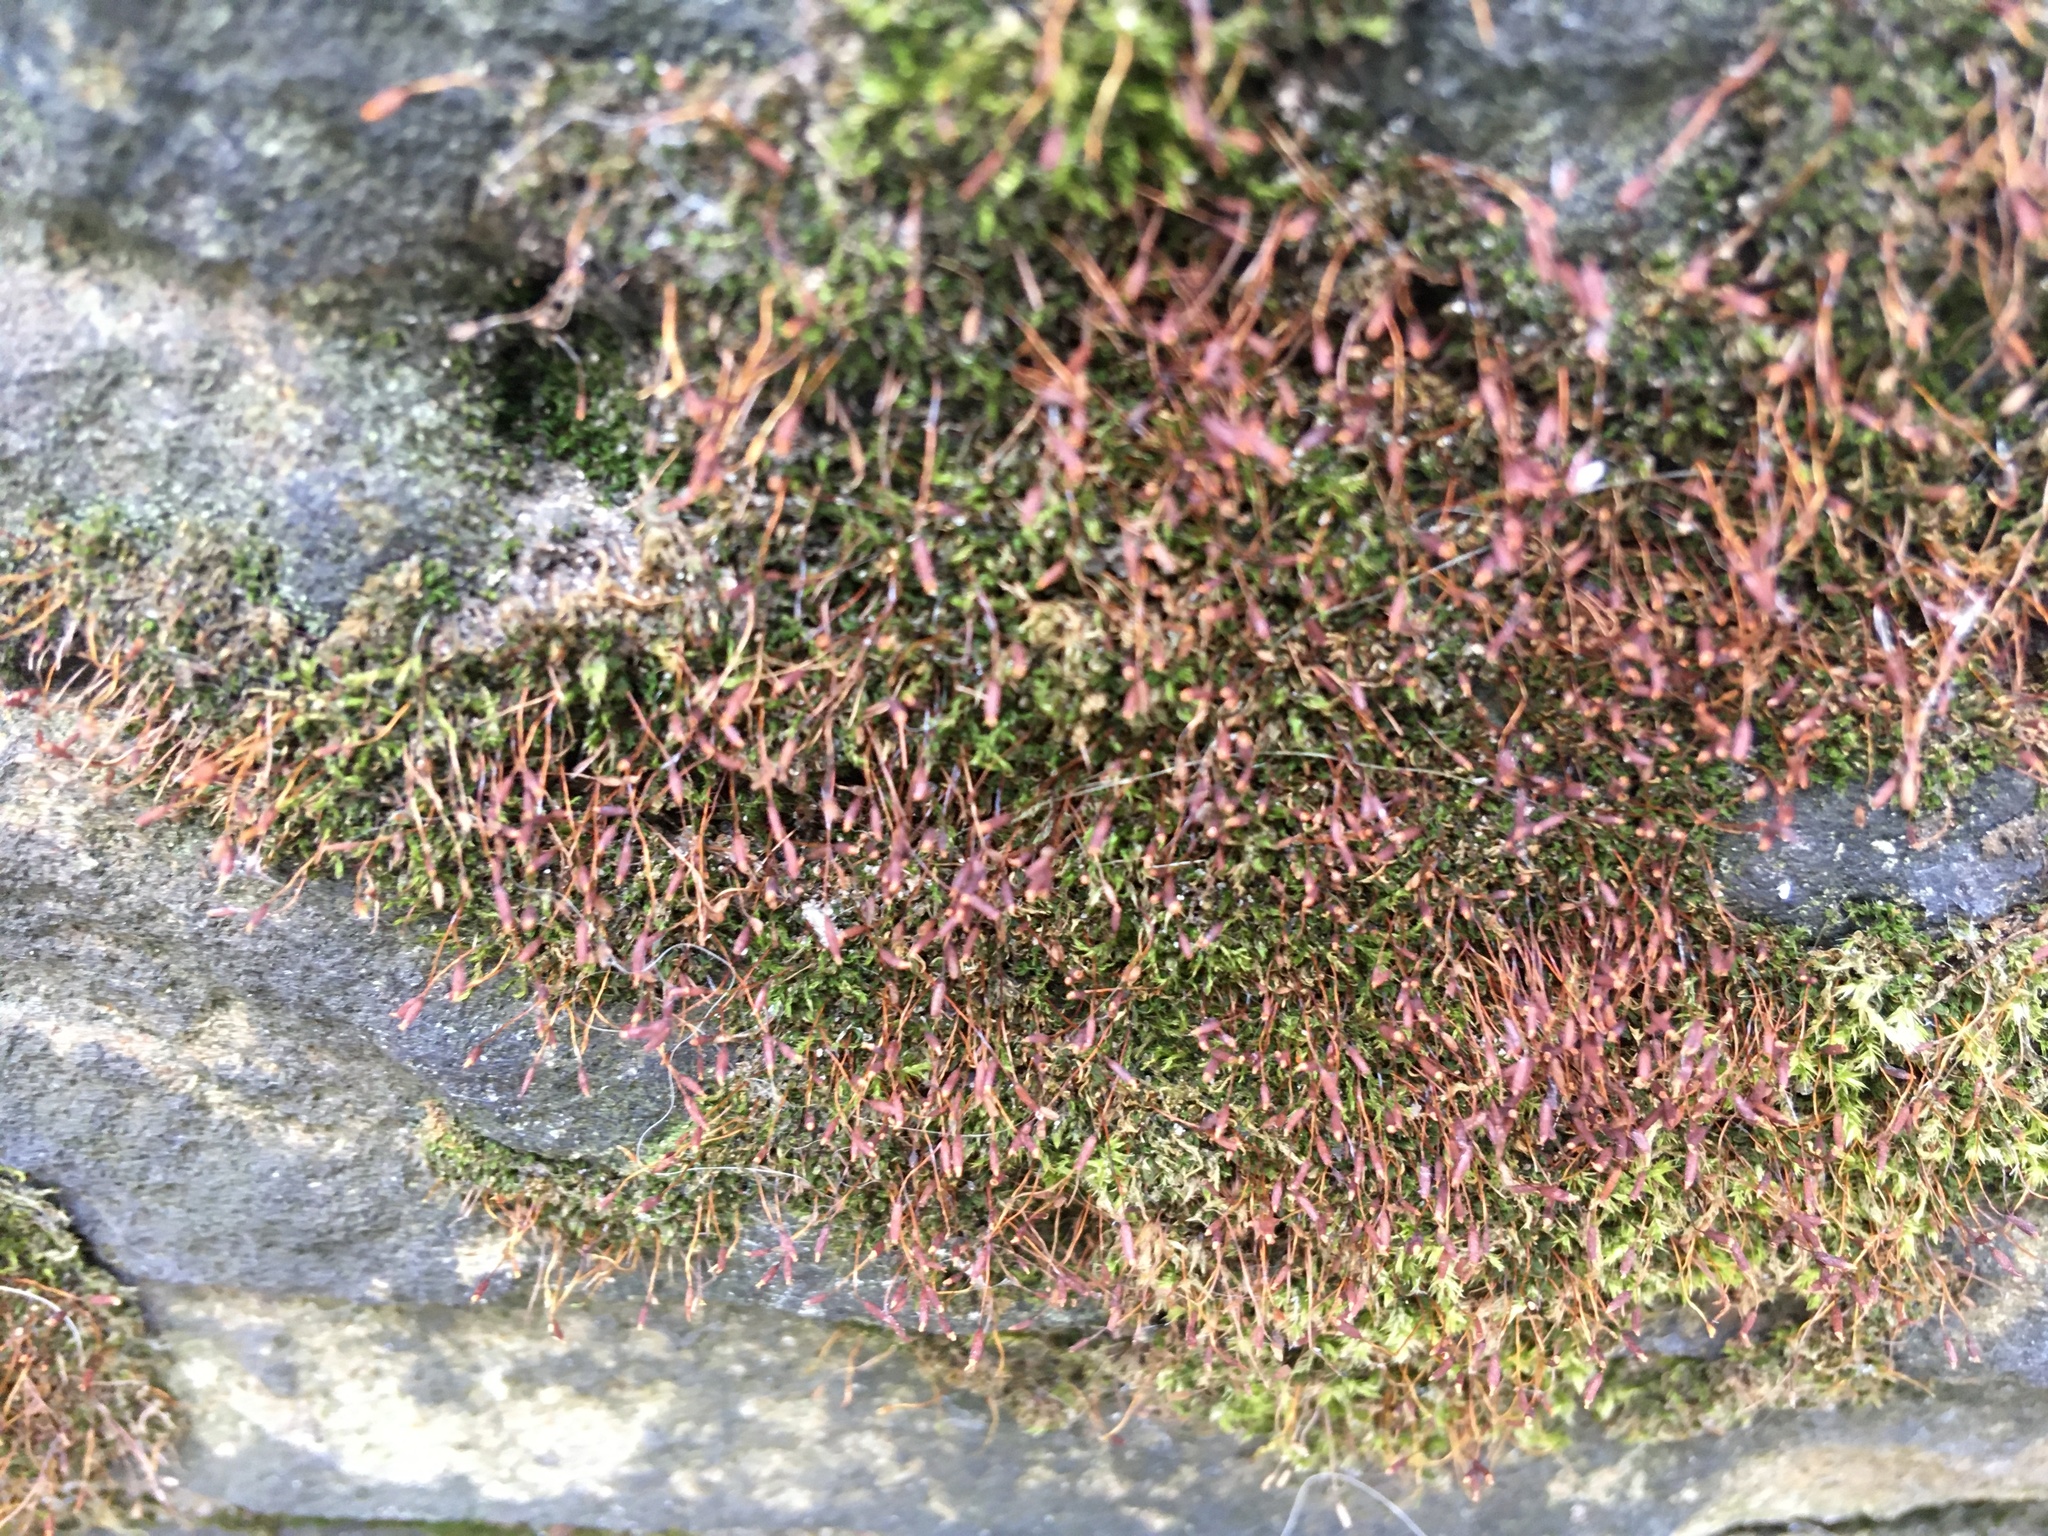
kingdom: Plantae
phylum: Bryophyta
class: Bryopsida
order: Dicranales
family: Ditrichaceae
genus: Ceratodon
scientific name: Ceratodon purpureus
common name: Redshank
